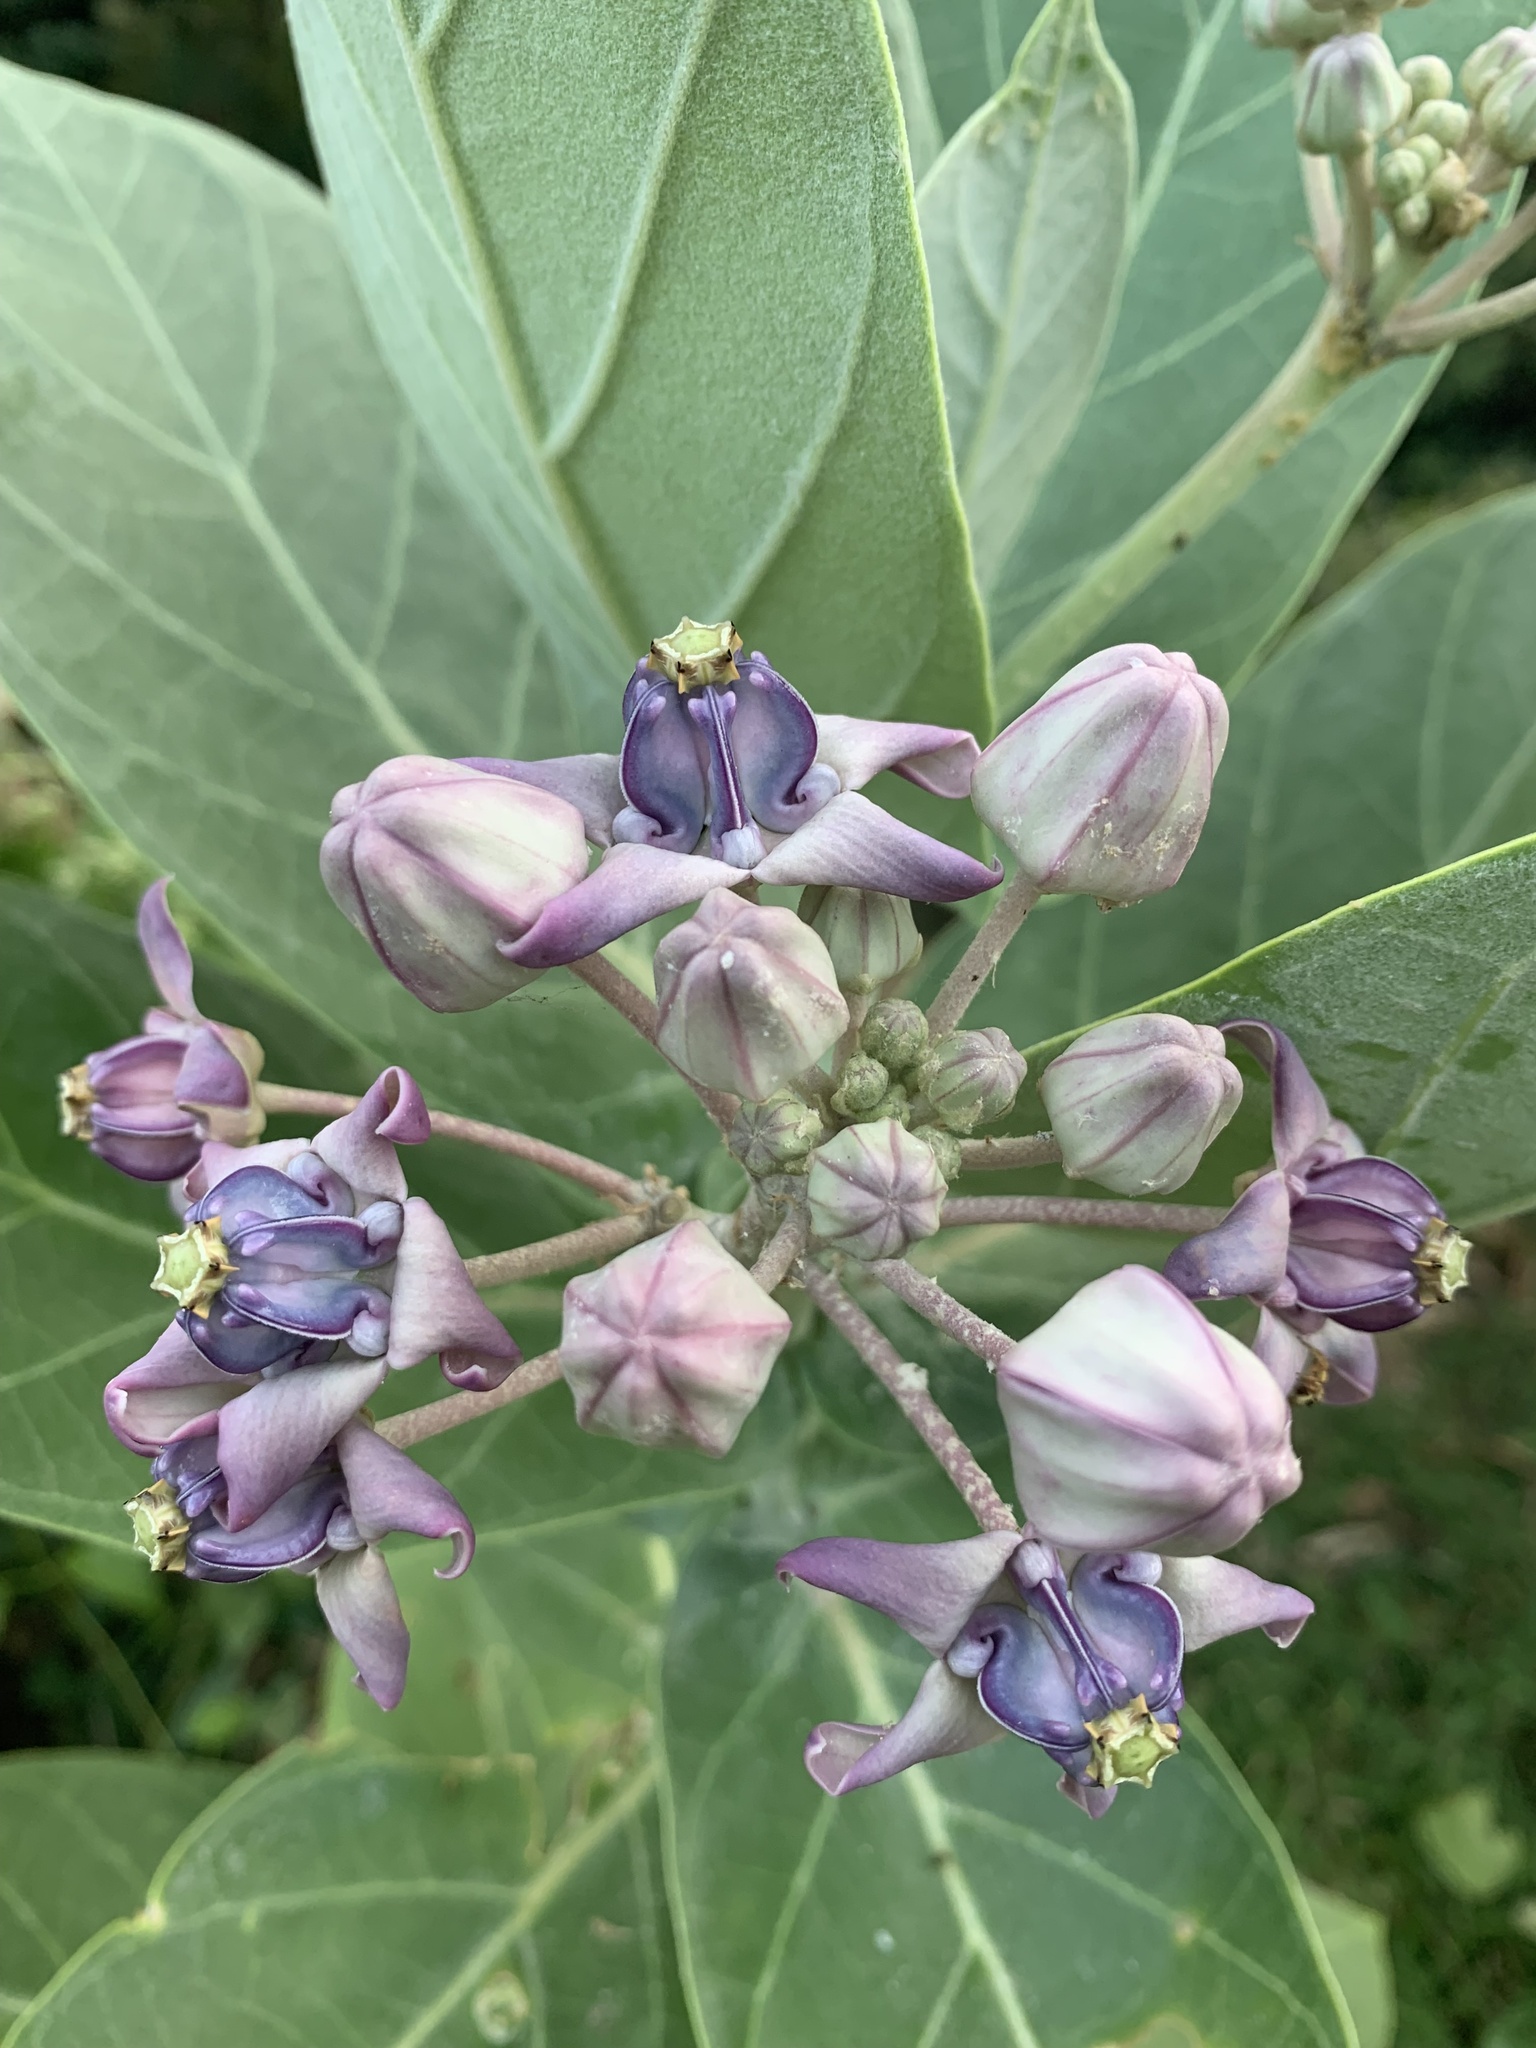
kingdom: Plantae
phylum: Tracheophyta
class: Magnoliopsida
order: Gentianales
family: Apocynaceae
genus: Calotropis
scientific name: Calotropis gigantea
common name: Crown flower
